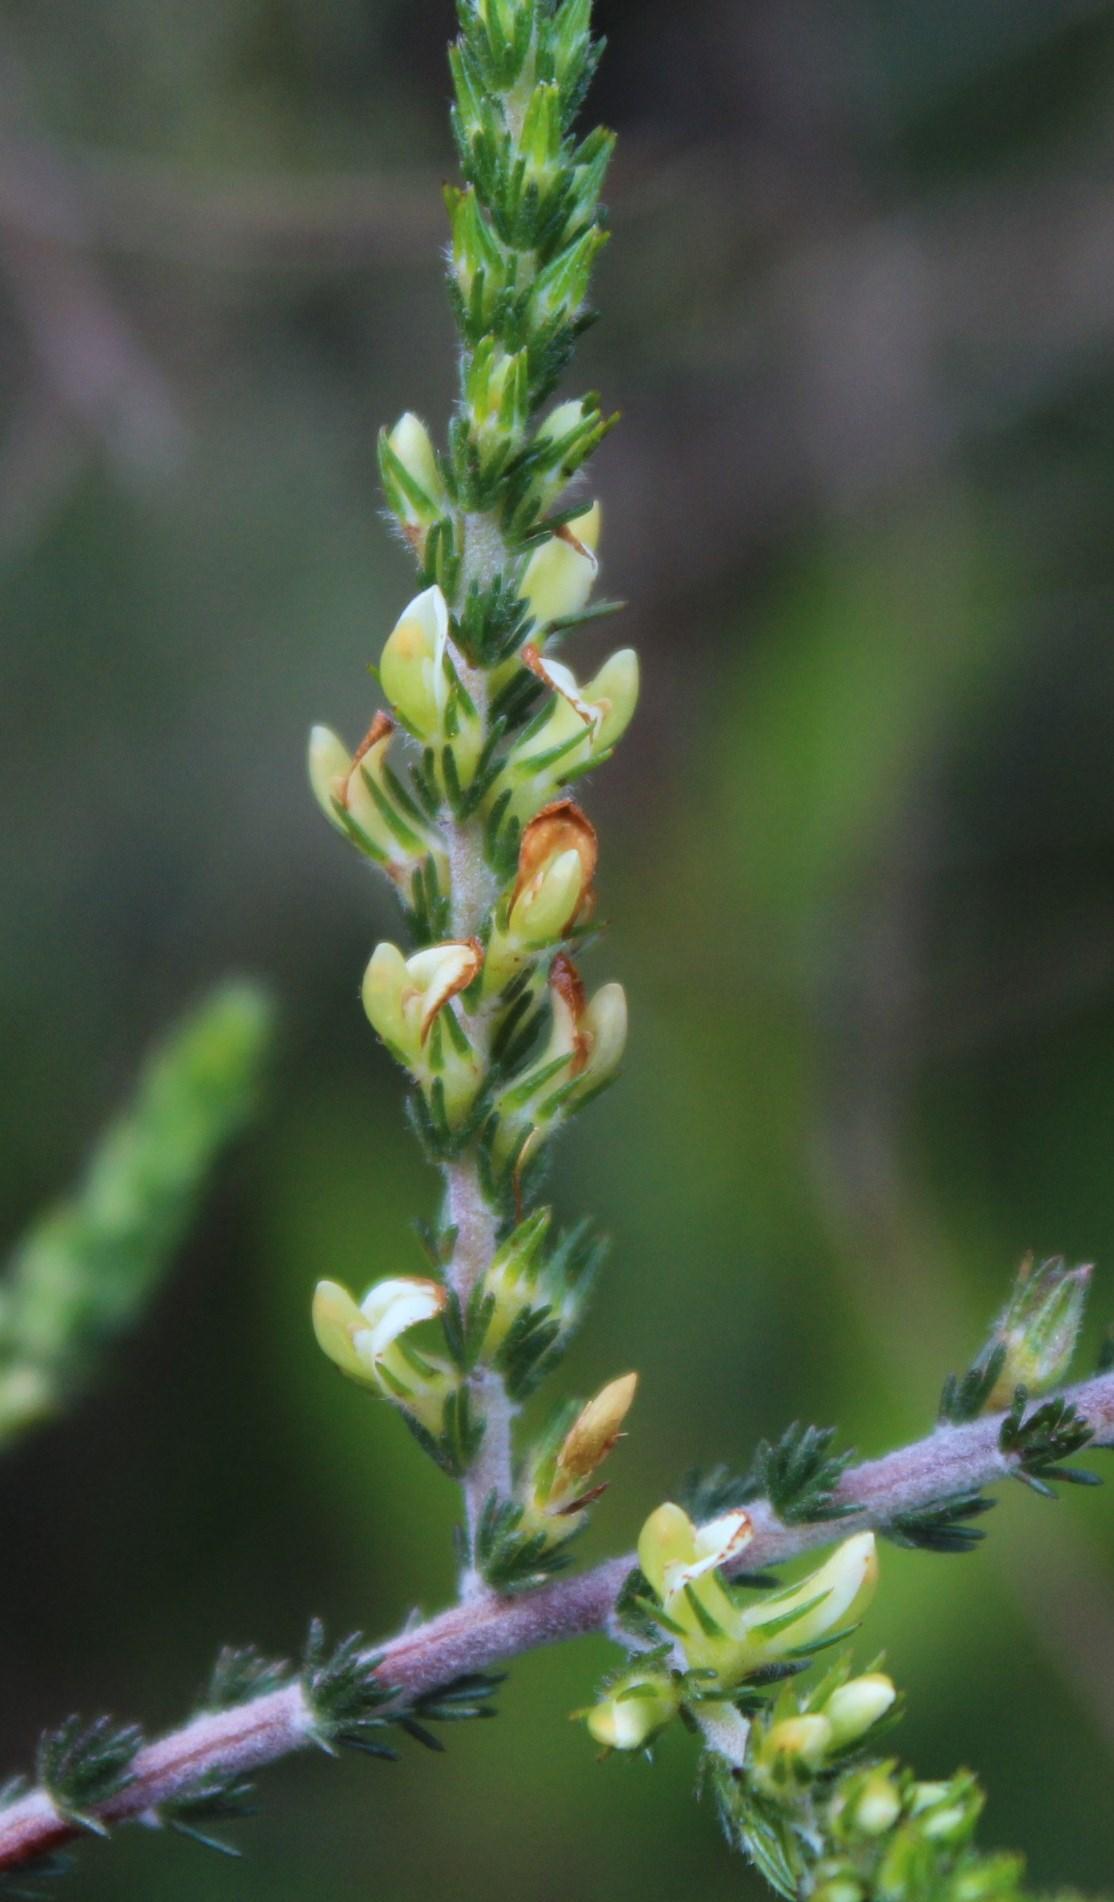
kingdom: Plantae
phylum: Tracheophyta
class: Magnoliopsida
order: Fabales
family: Fabaceae
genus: Aspalathus
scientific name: Aspalathus hispida
